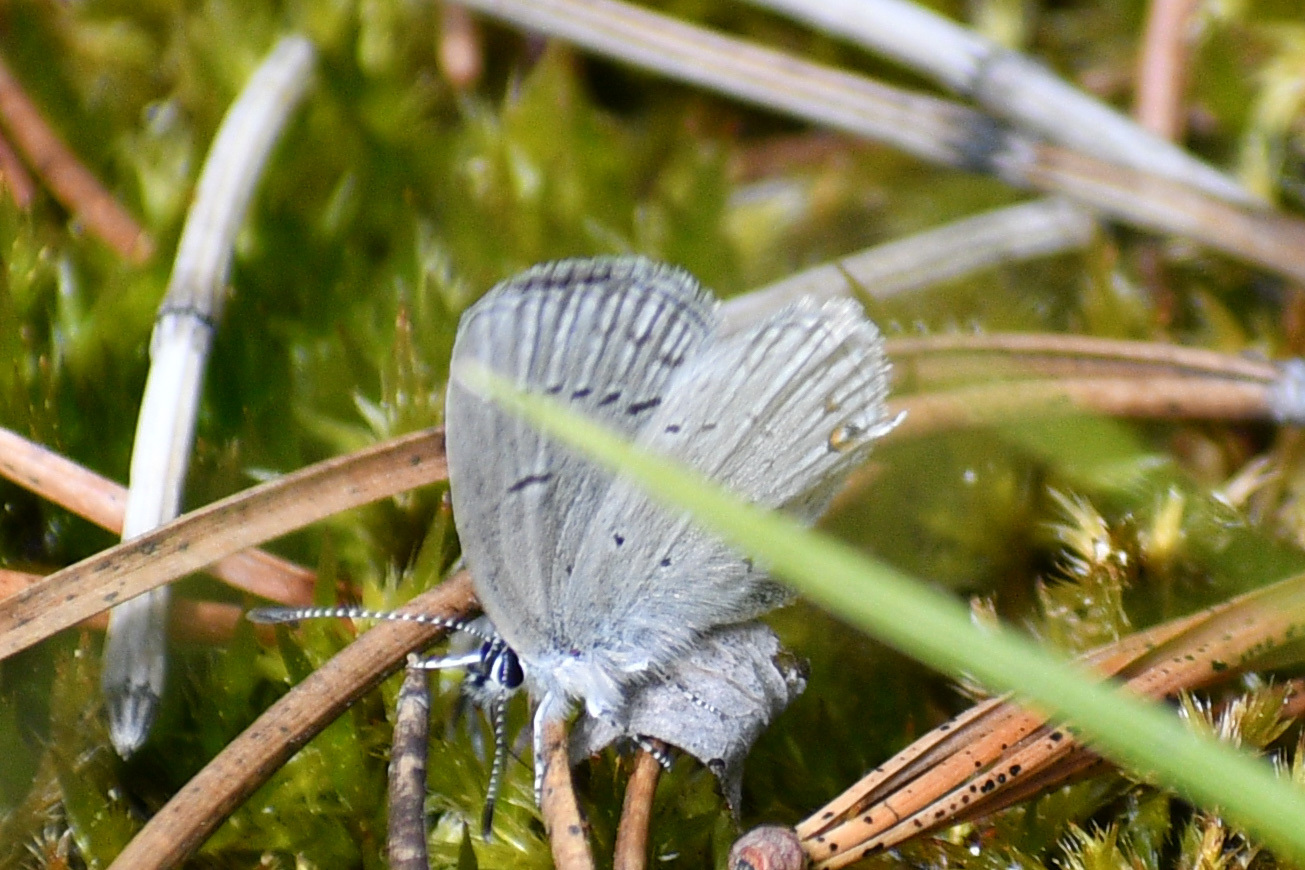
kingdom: Animalia
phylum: Arthropoda
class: Insecta
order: Lepidoptera
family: Lycaenidae
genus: Elkalyce
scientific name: Elkalyce amyntula
